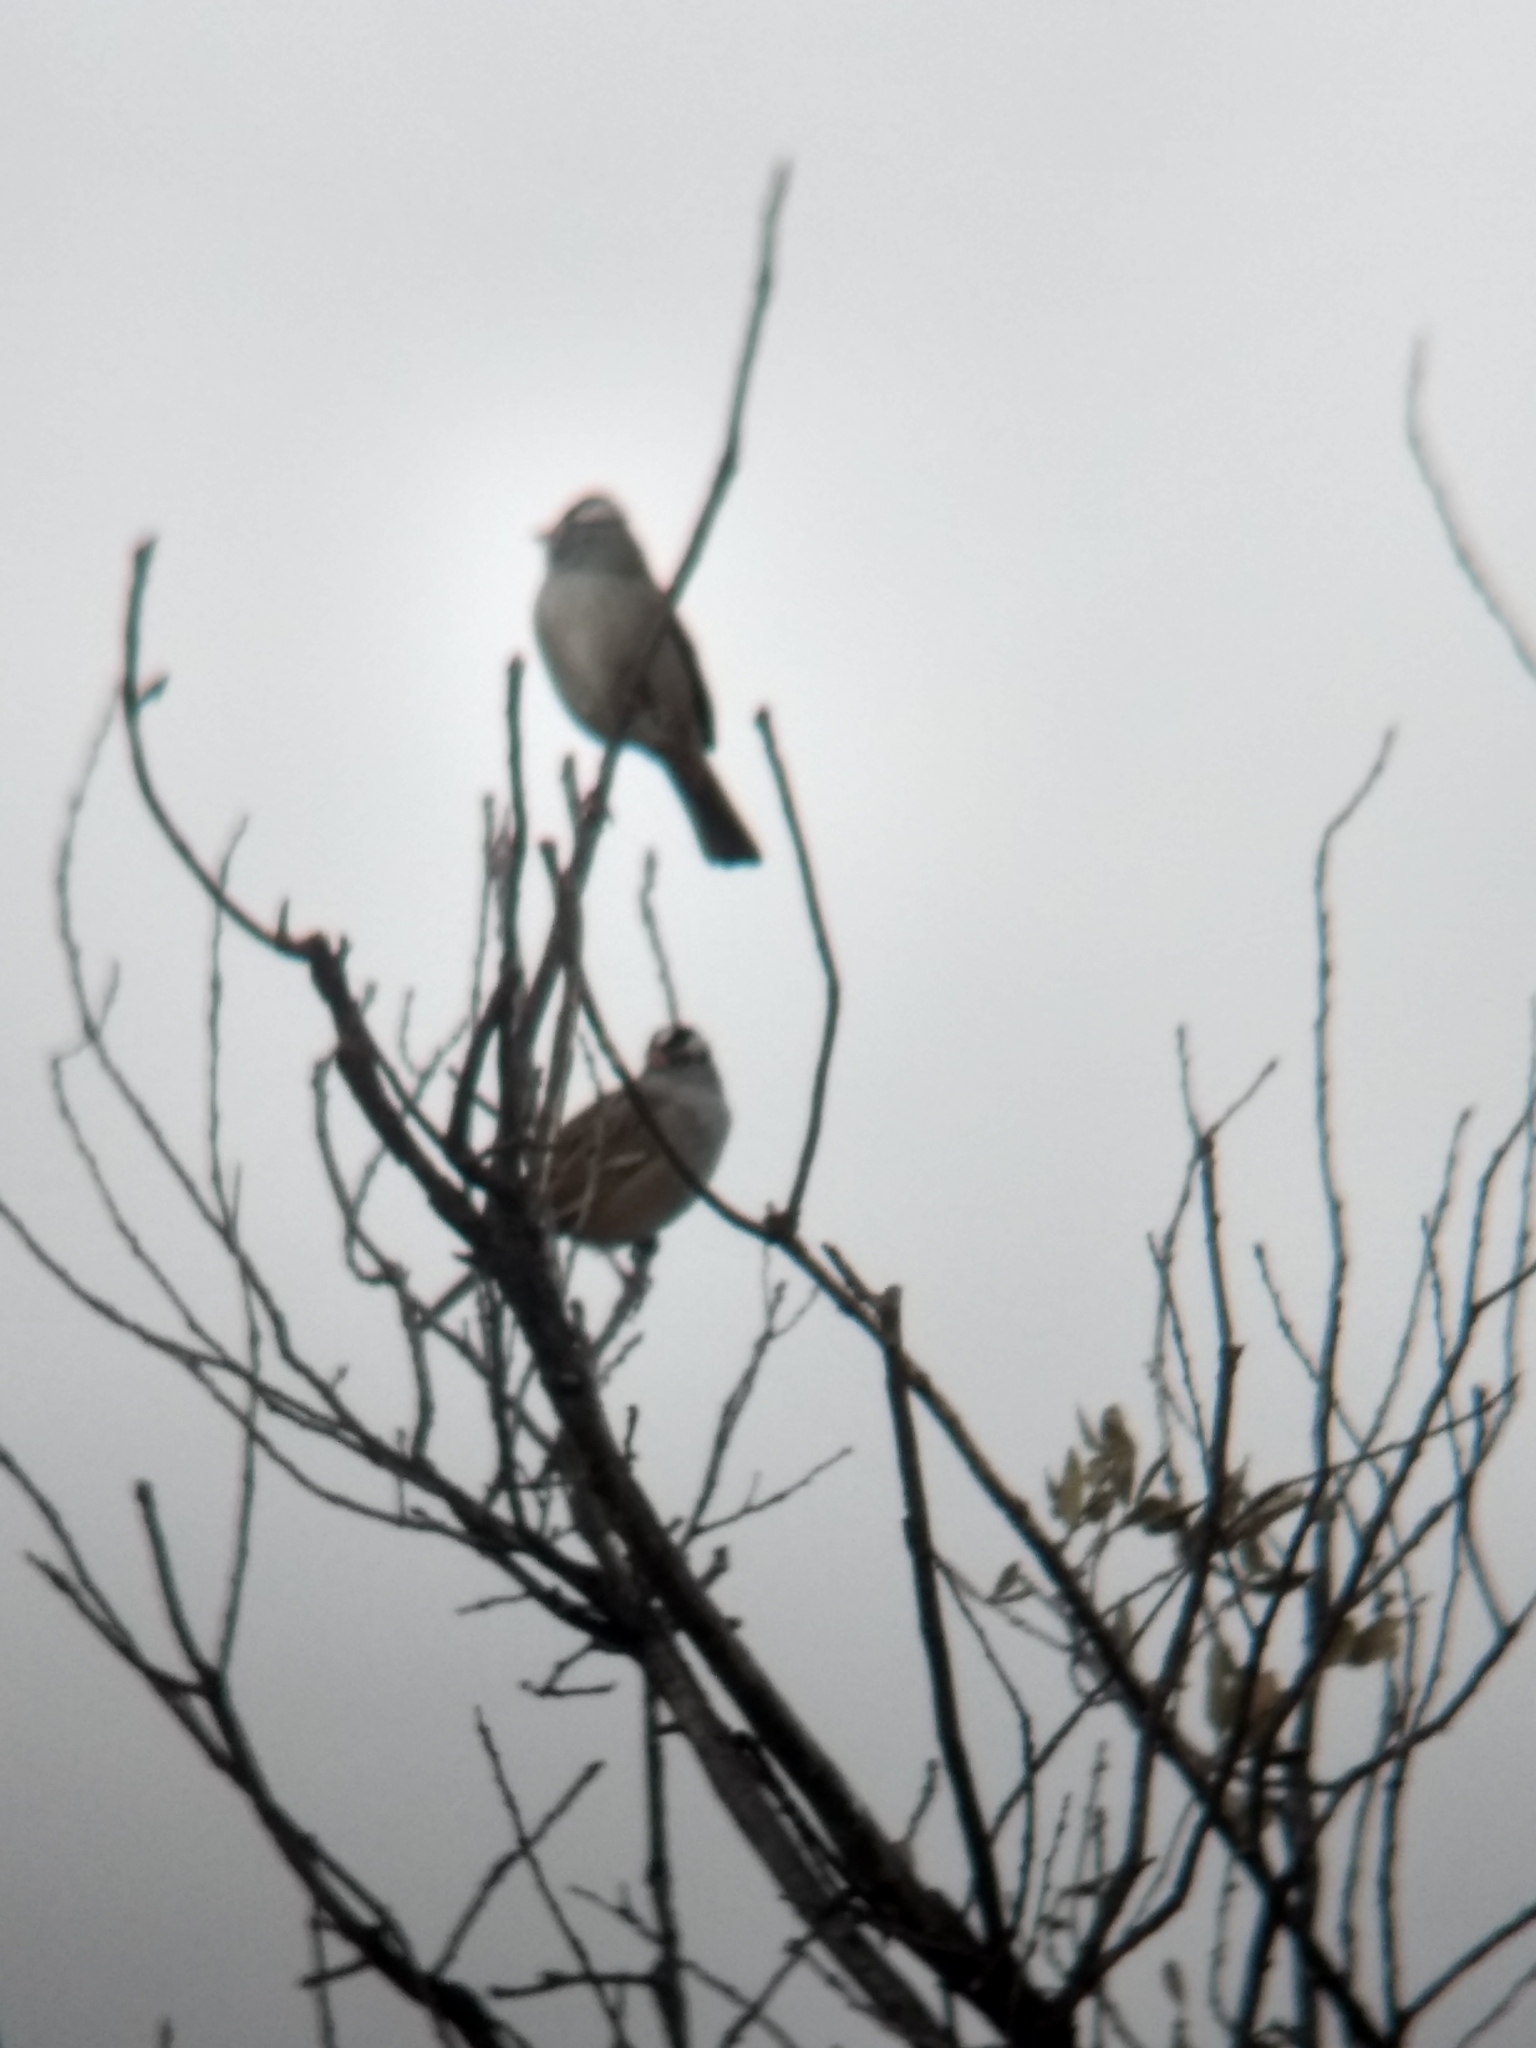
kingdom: Animalia
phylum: Chordata
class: Aves
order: Passeriformes
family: Passerellidae
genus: Zonotrichia
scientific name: Zonotrichia leucophrys
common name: White-crowned sparrow
